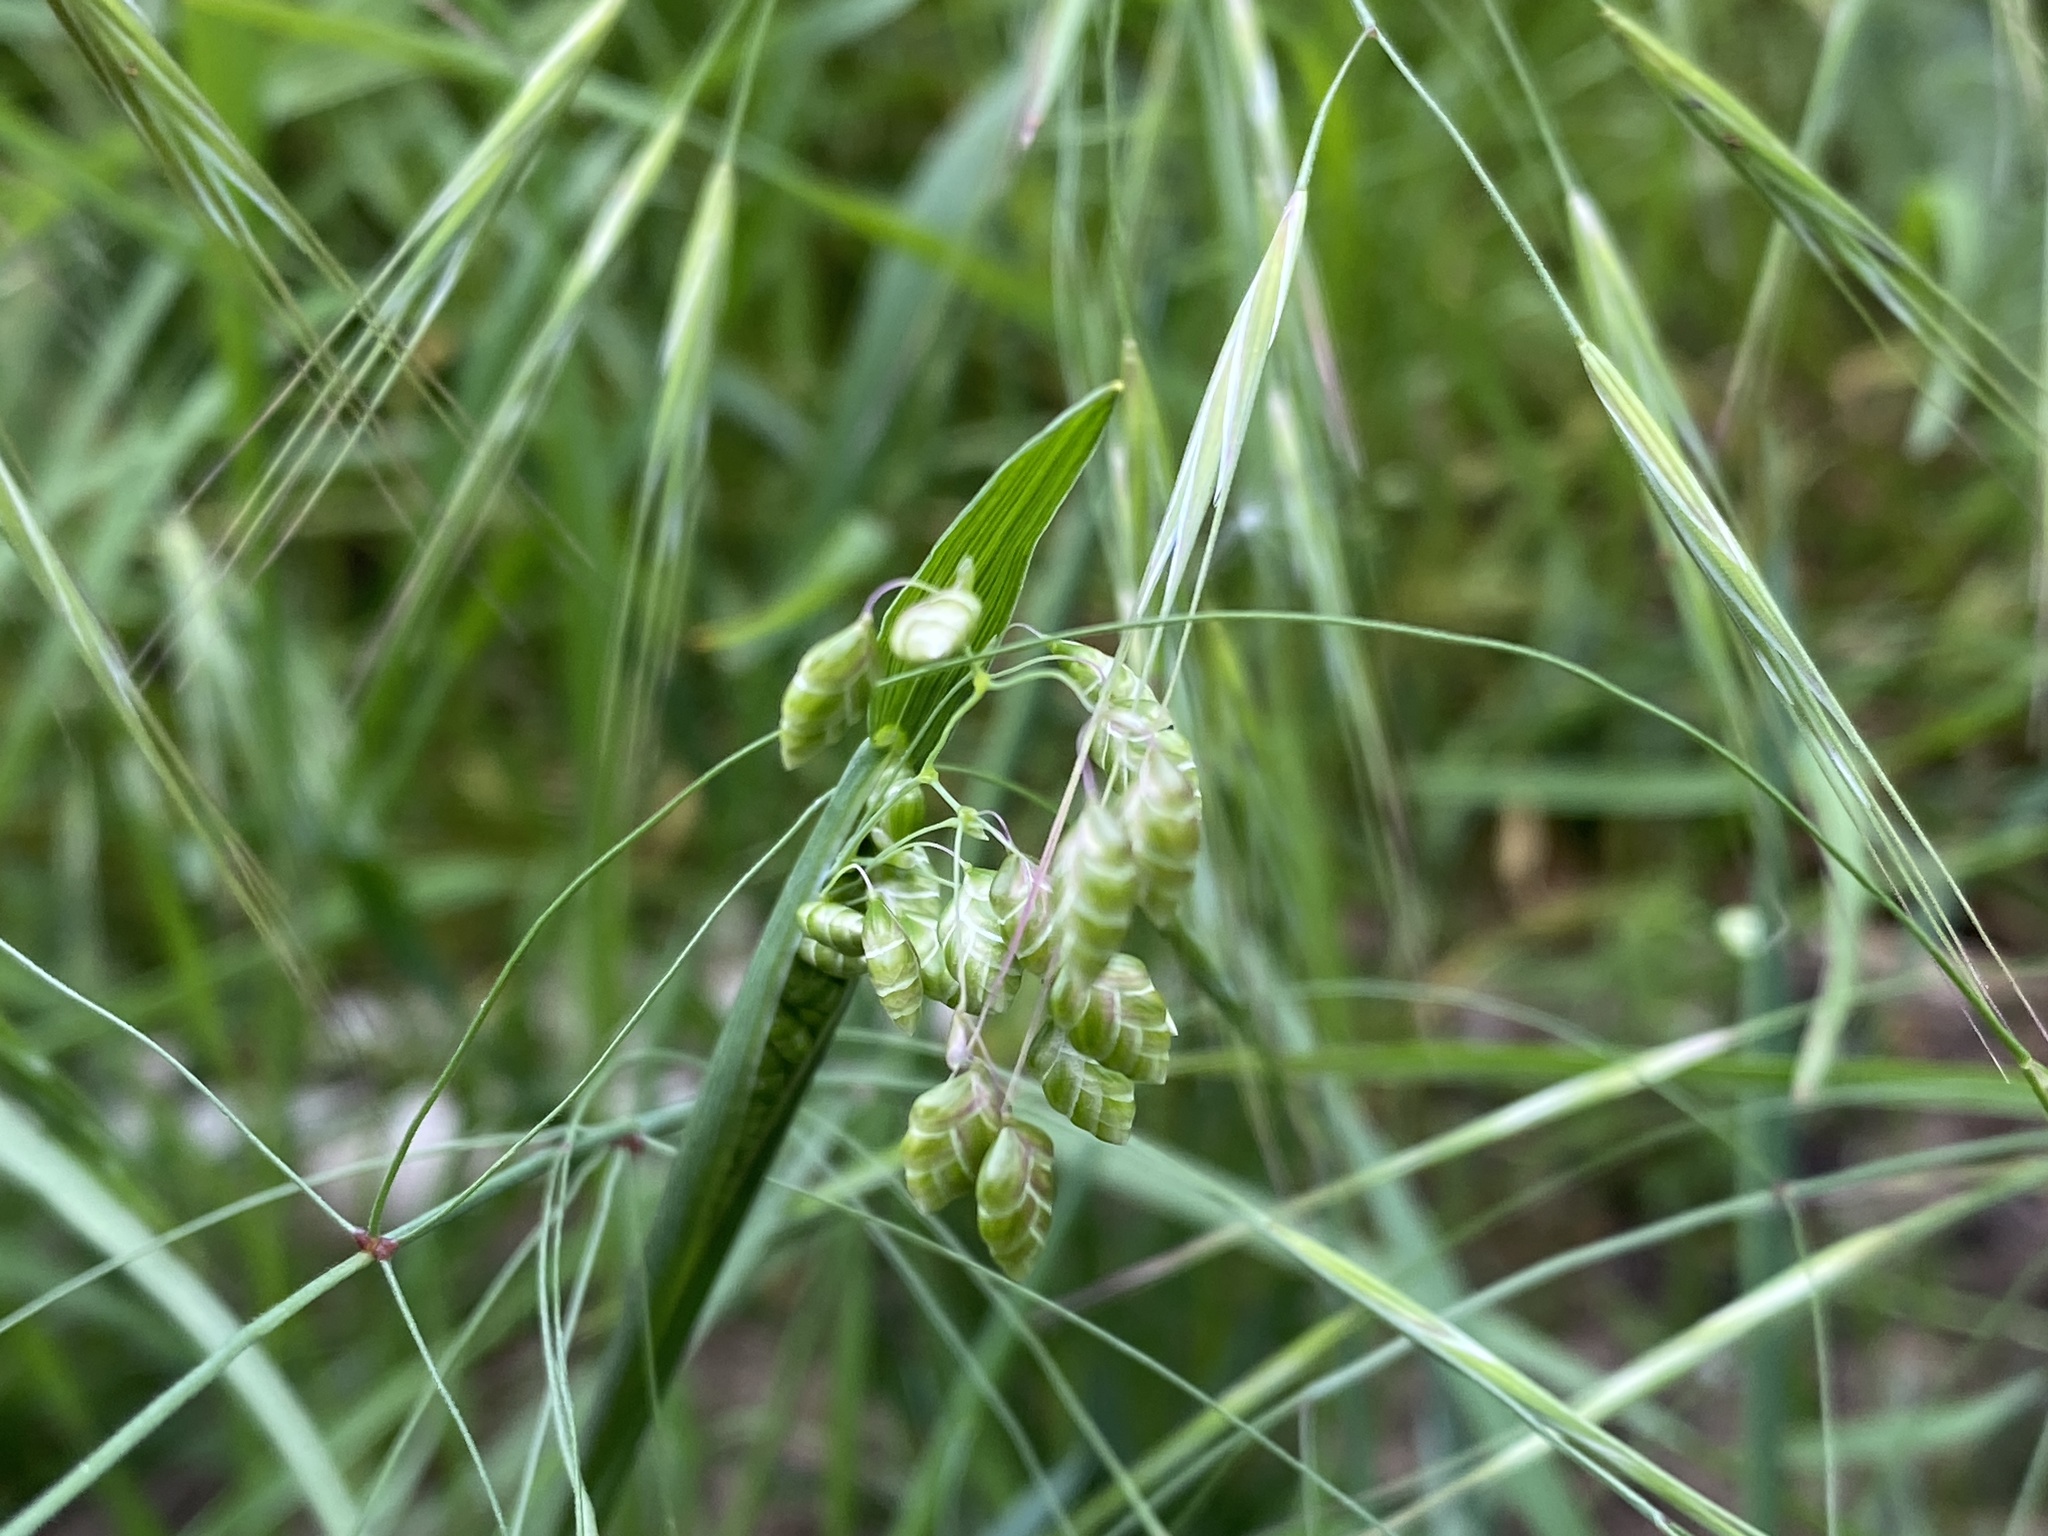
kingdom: Plantae
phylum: Tracheophyta
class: Liliopsida
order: Poales
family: Poaceae
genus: Briza
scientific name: Briza maxima
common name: Big quakinggrass
